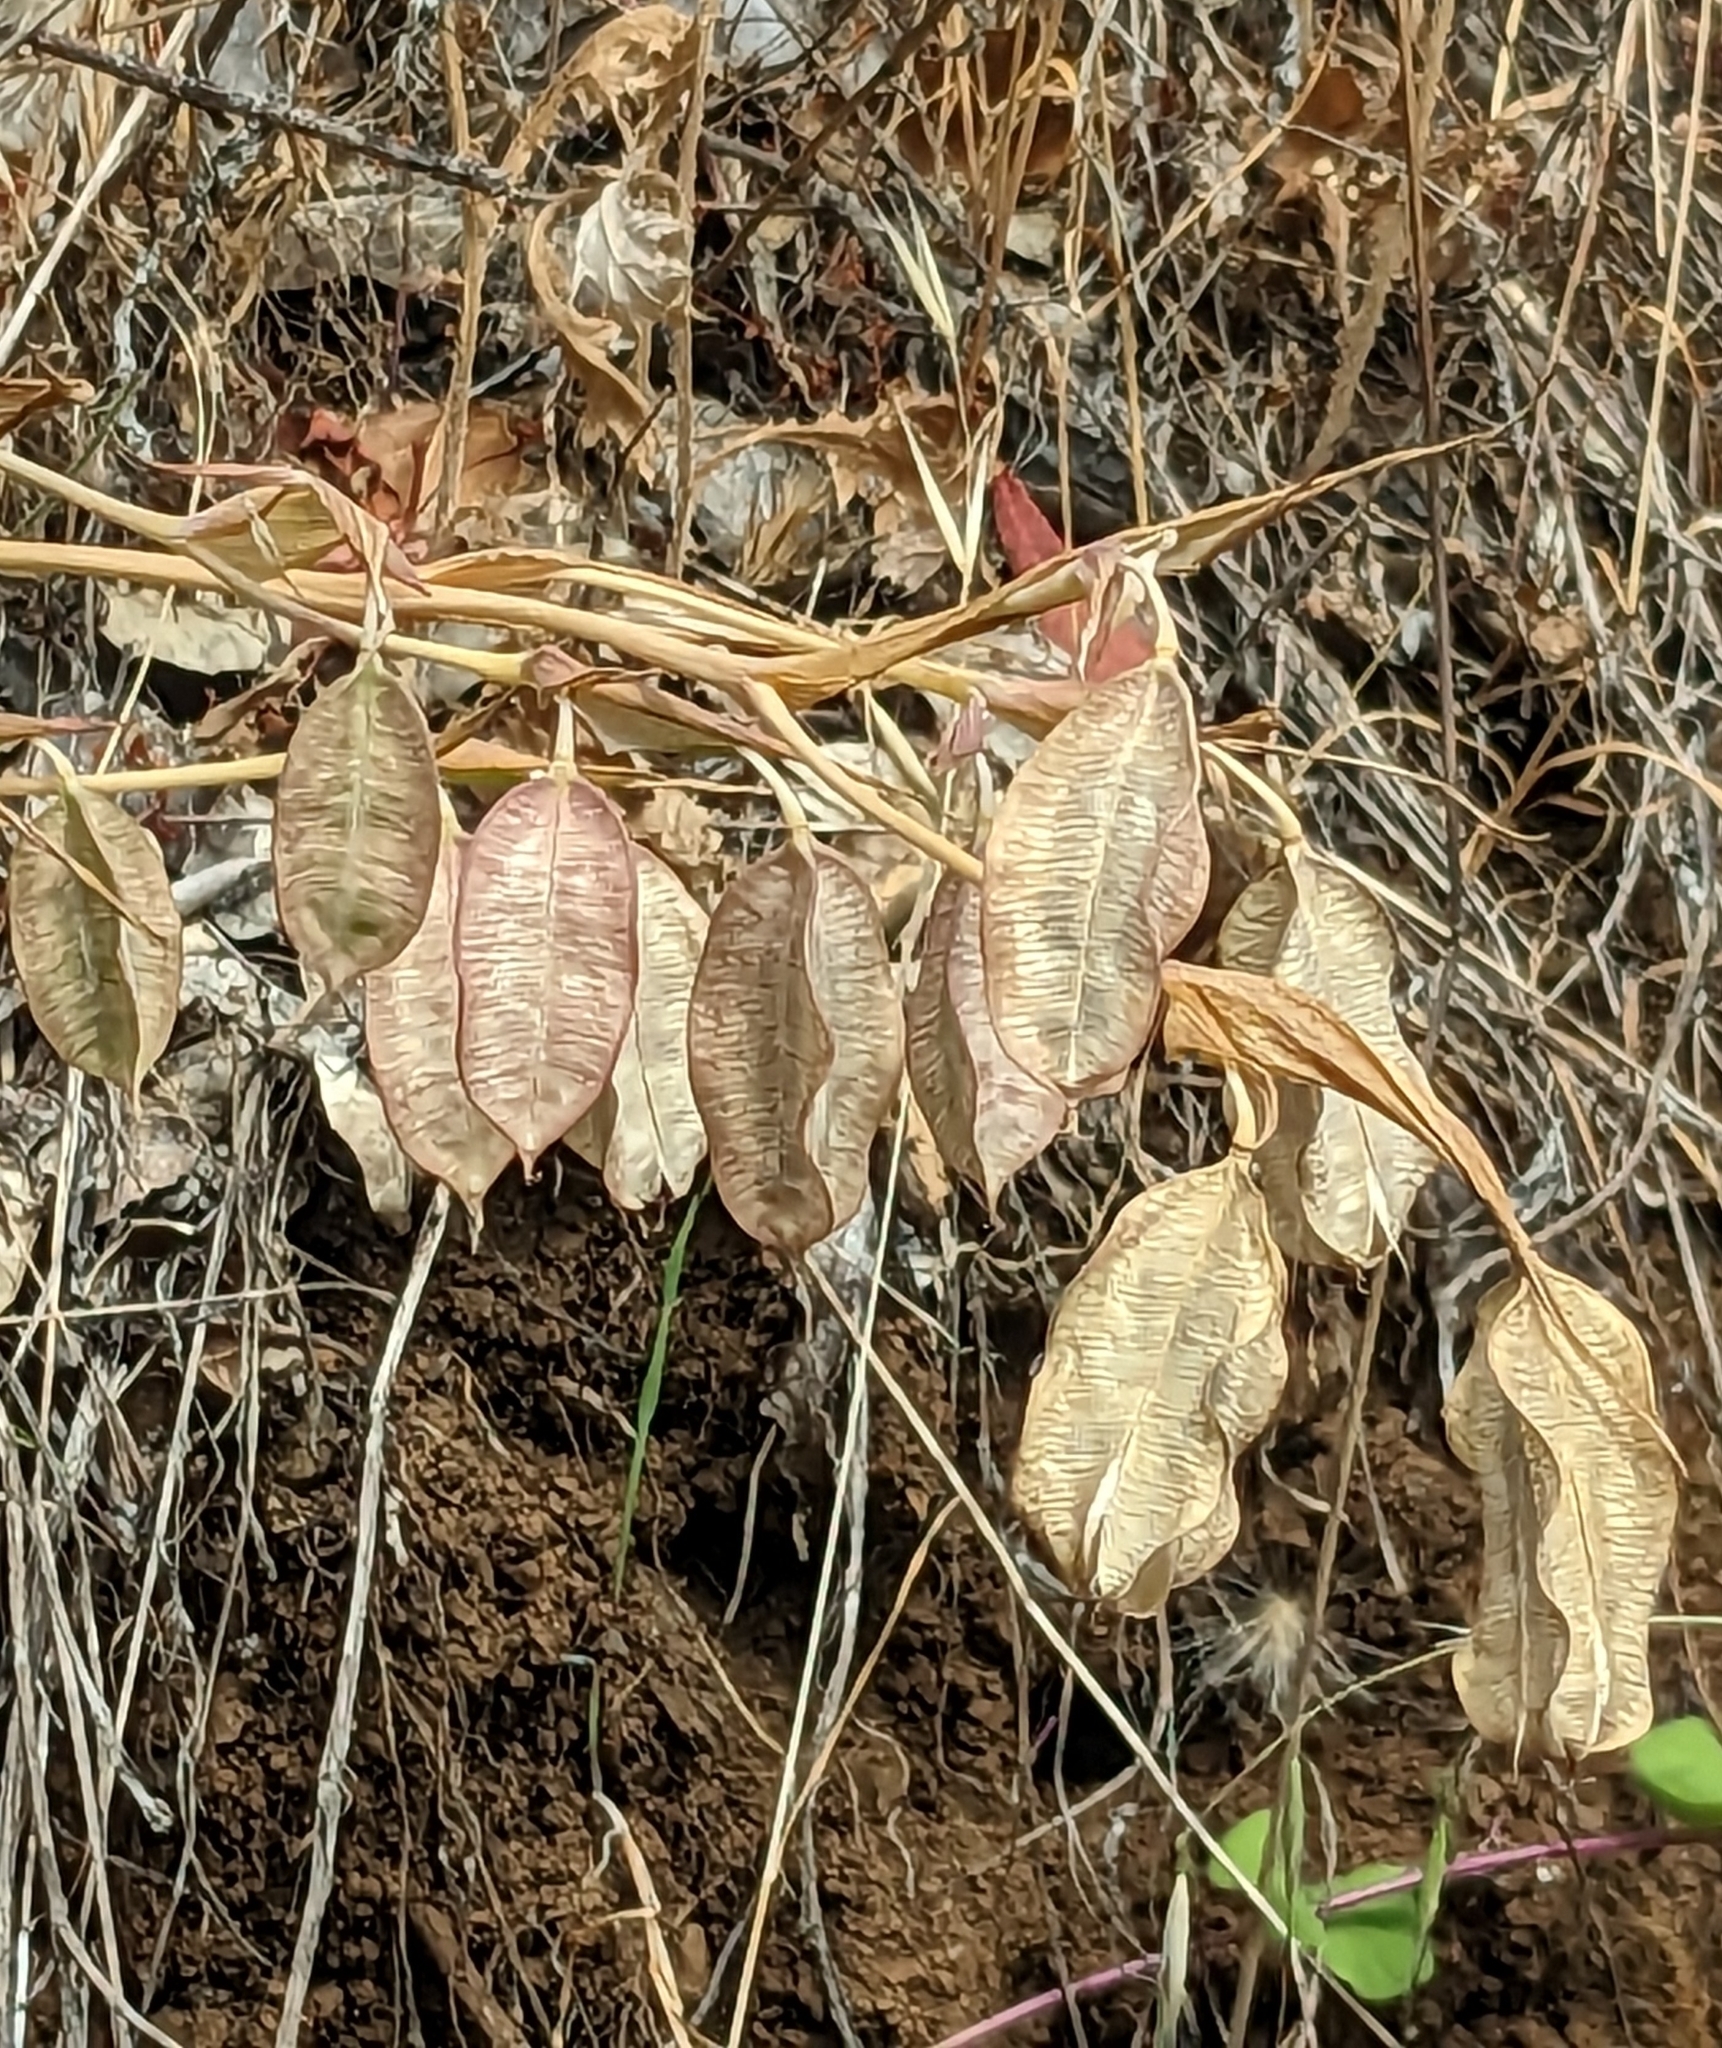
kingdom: Plantae
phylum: Tracheophyta
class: Liliopsida
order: Liliales
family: Liliaceae
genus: Calochortus
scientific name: Calochortus albus
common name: Fairy-lantern
